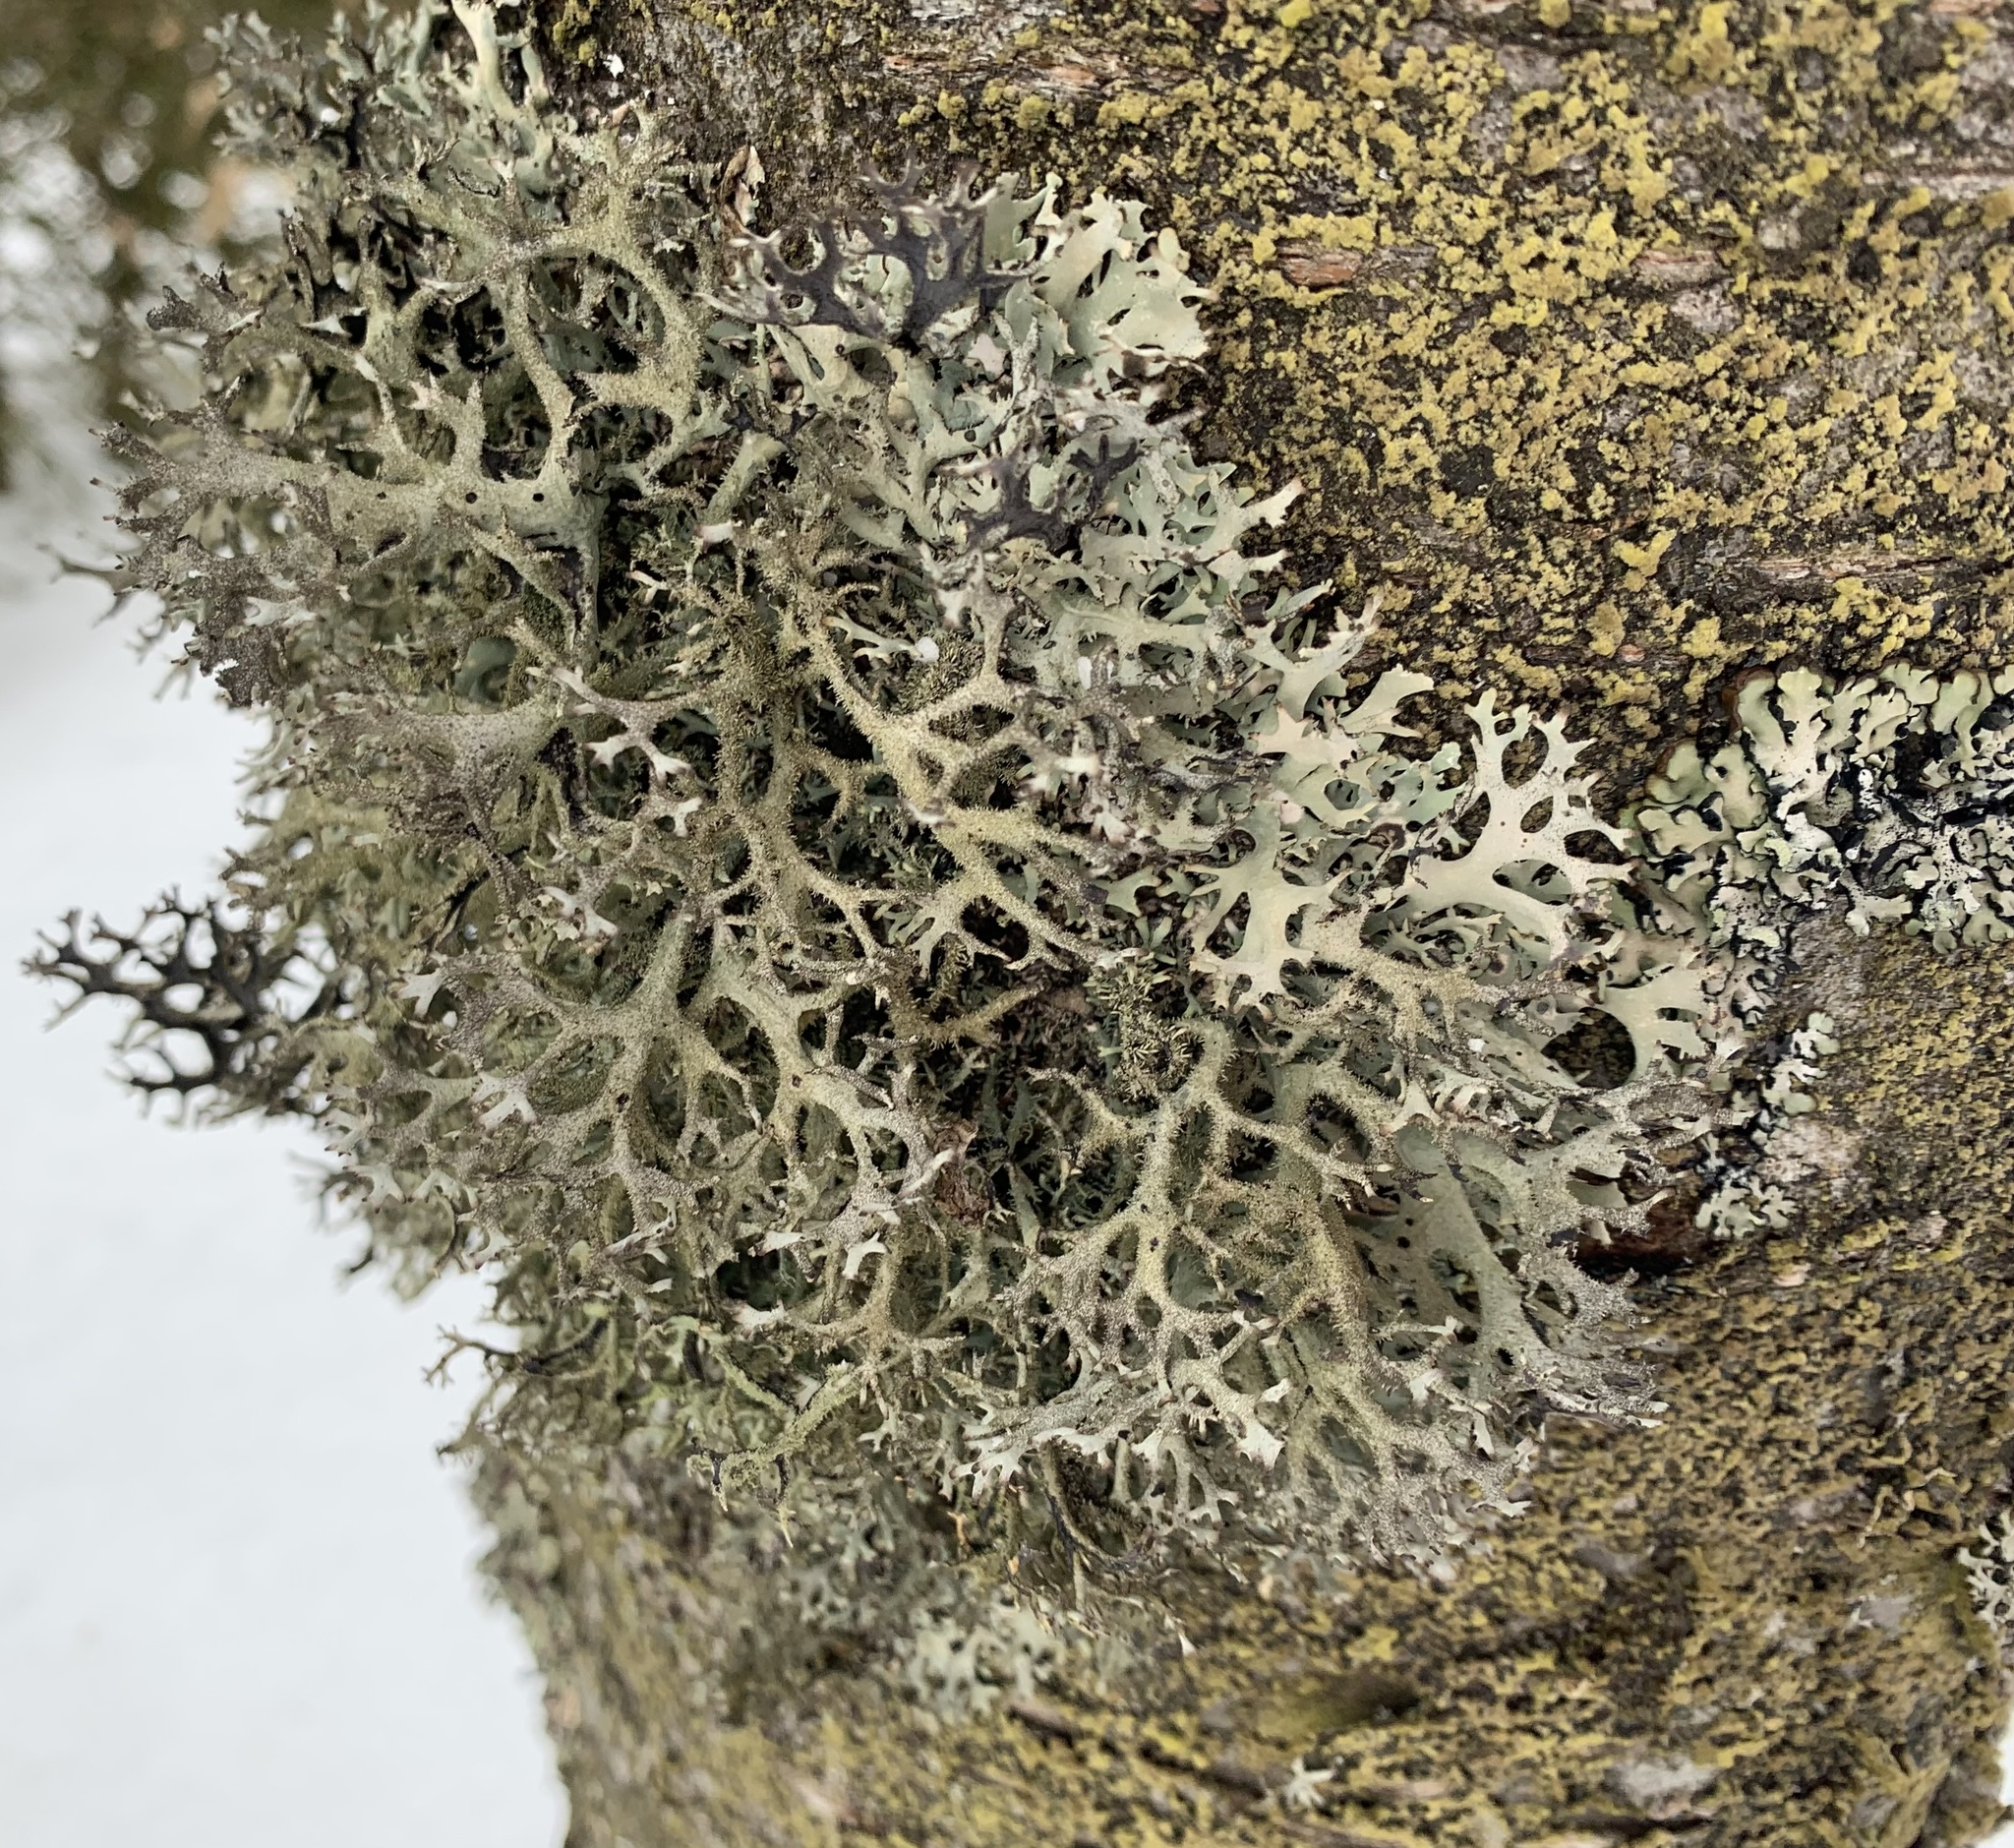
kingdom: Fungi
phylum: Ascomycota
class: Lecanoromycetes
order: Lecanorales
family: Parmeliaceae
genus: Pseudevernia
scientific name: Pseudevernia furfuracea
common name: Tree moss
